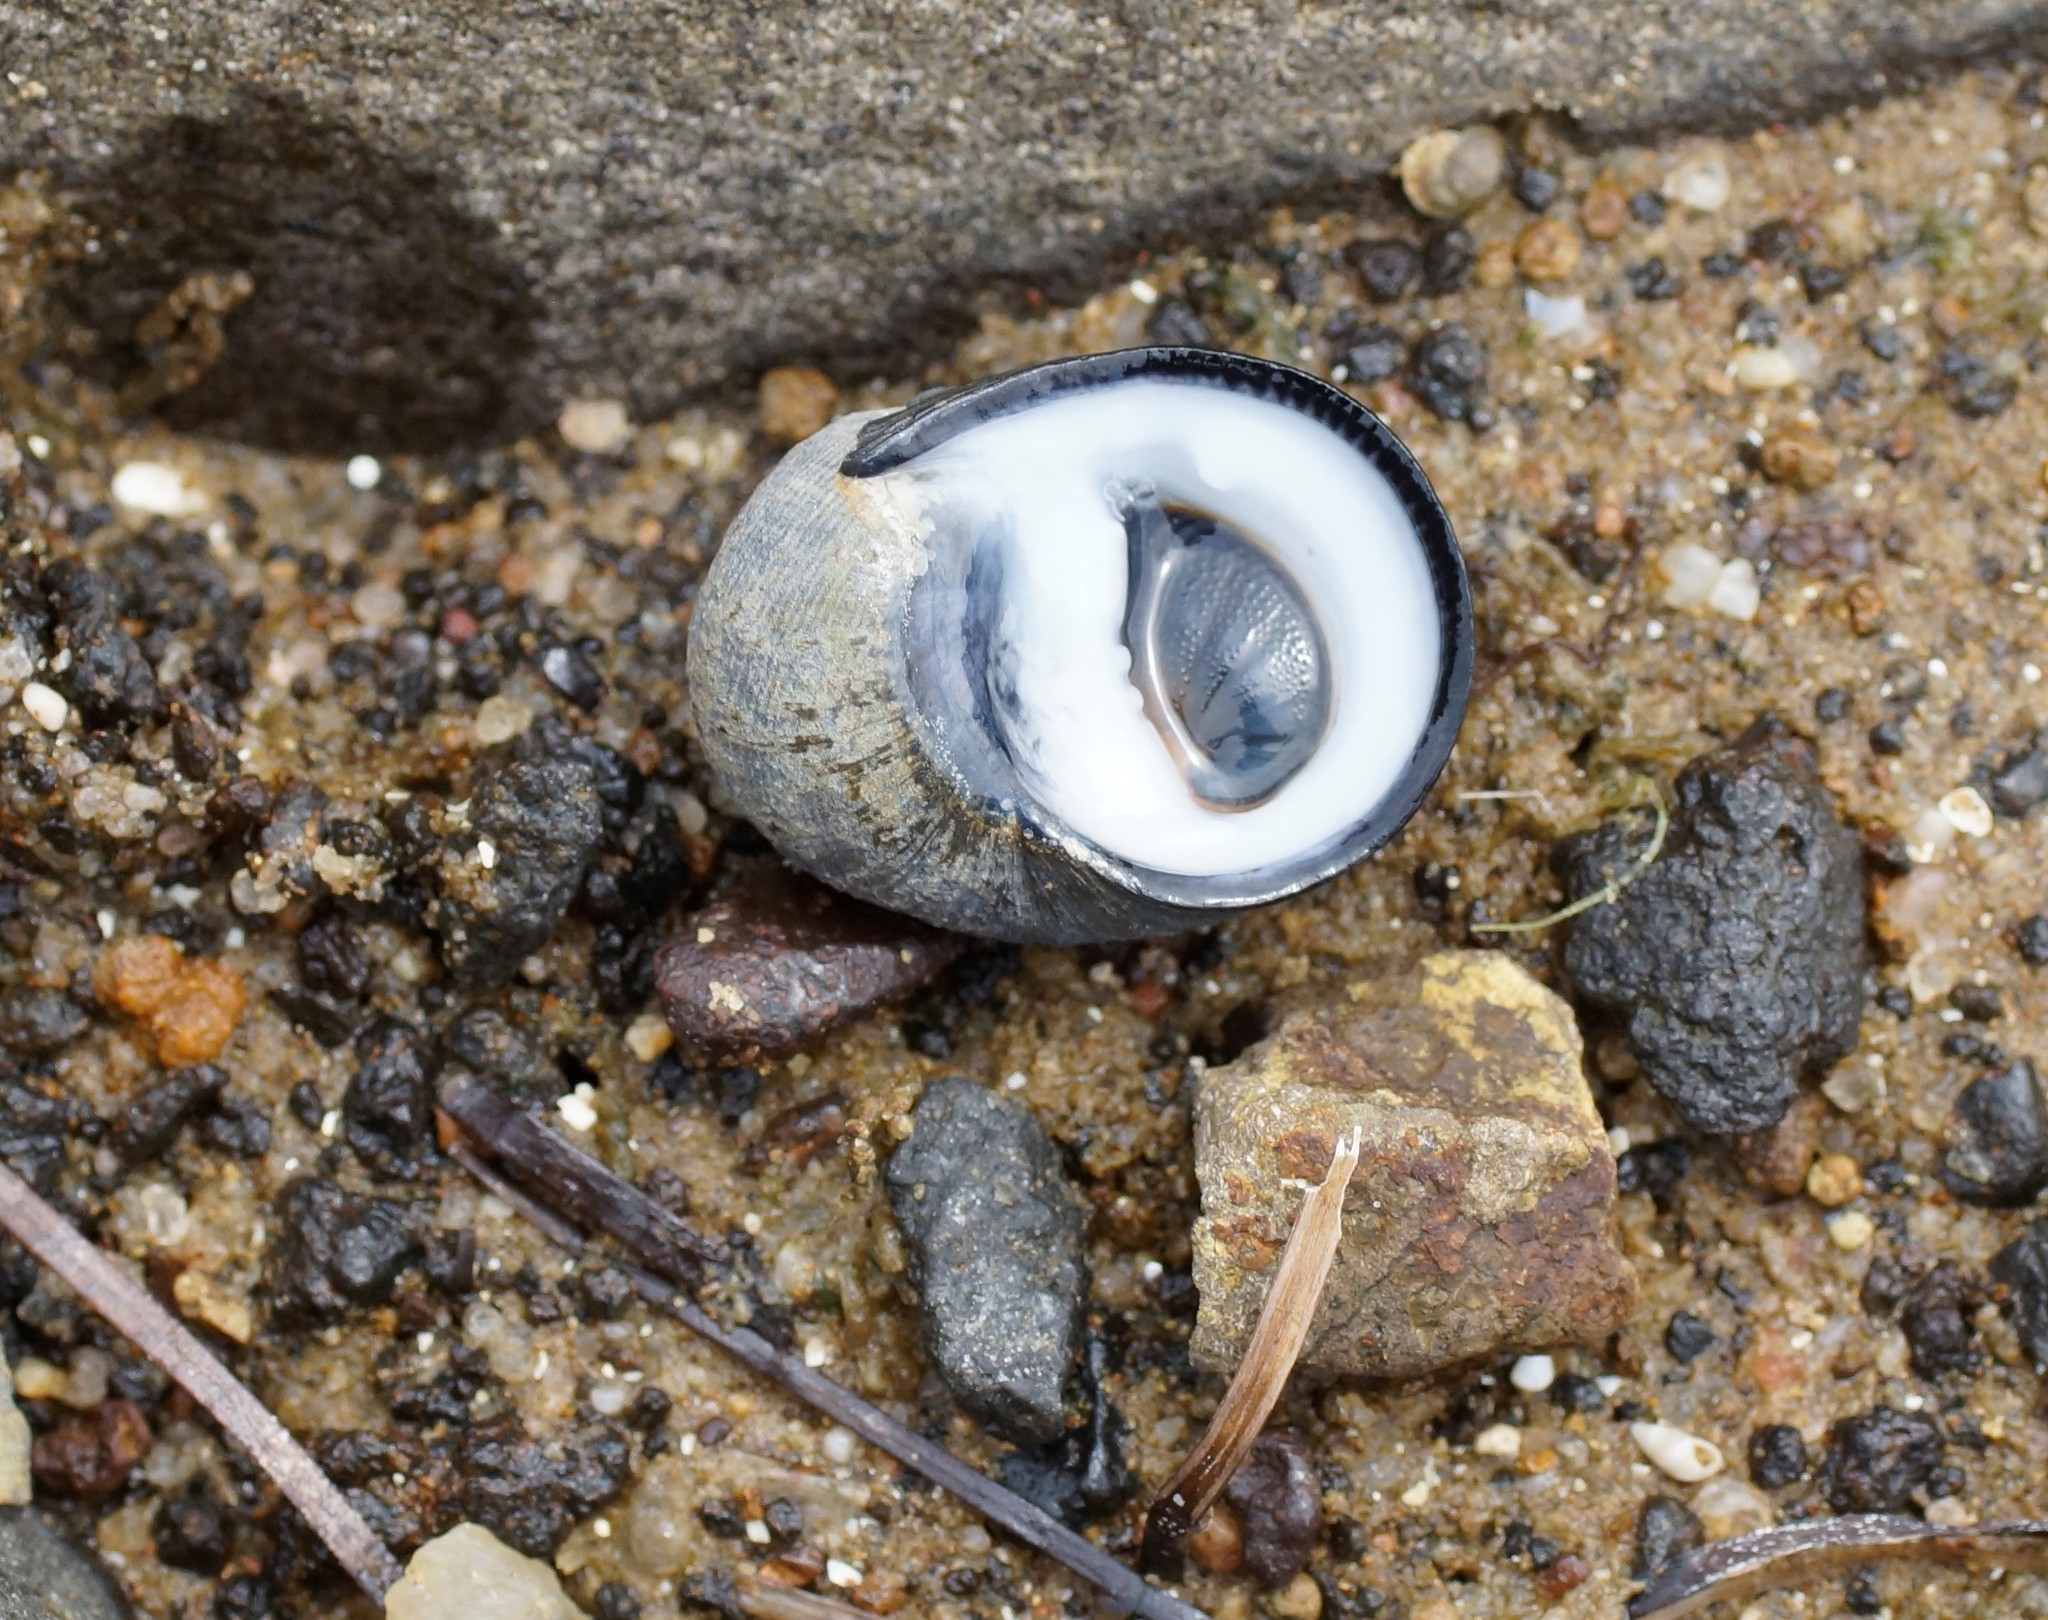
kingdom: Animalia
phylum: Mollusca
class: Gastropoda
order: Cycloneritida
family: Neritidae
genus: Nerita
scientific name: Nerita atramentosa
